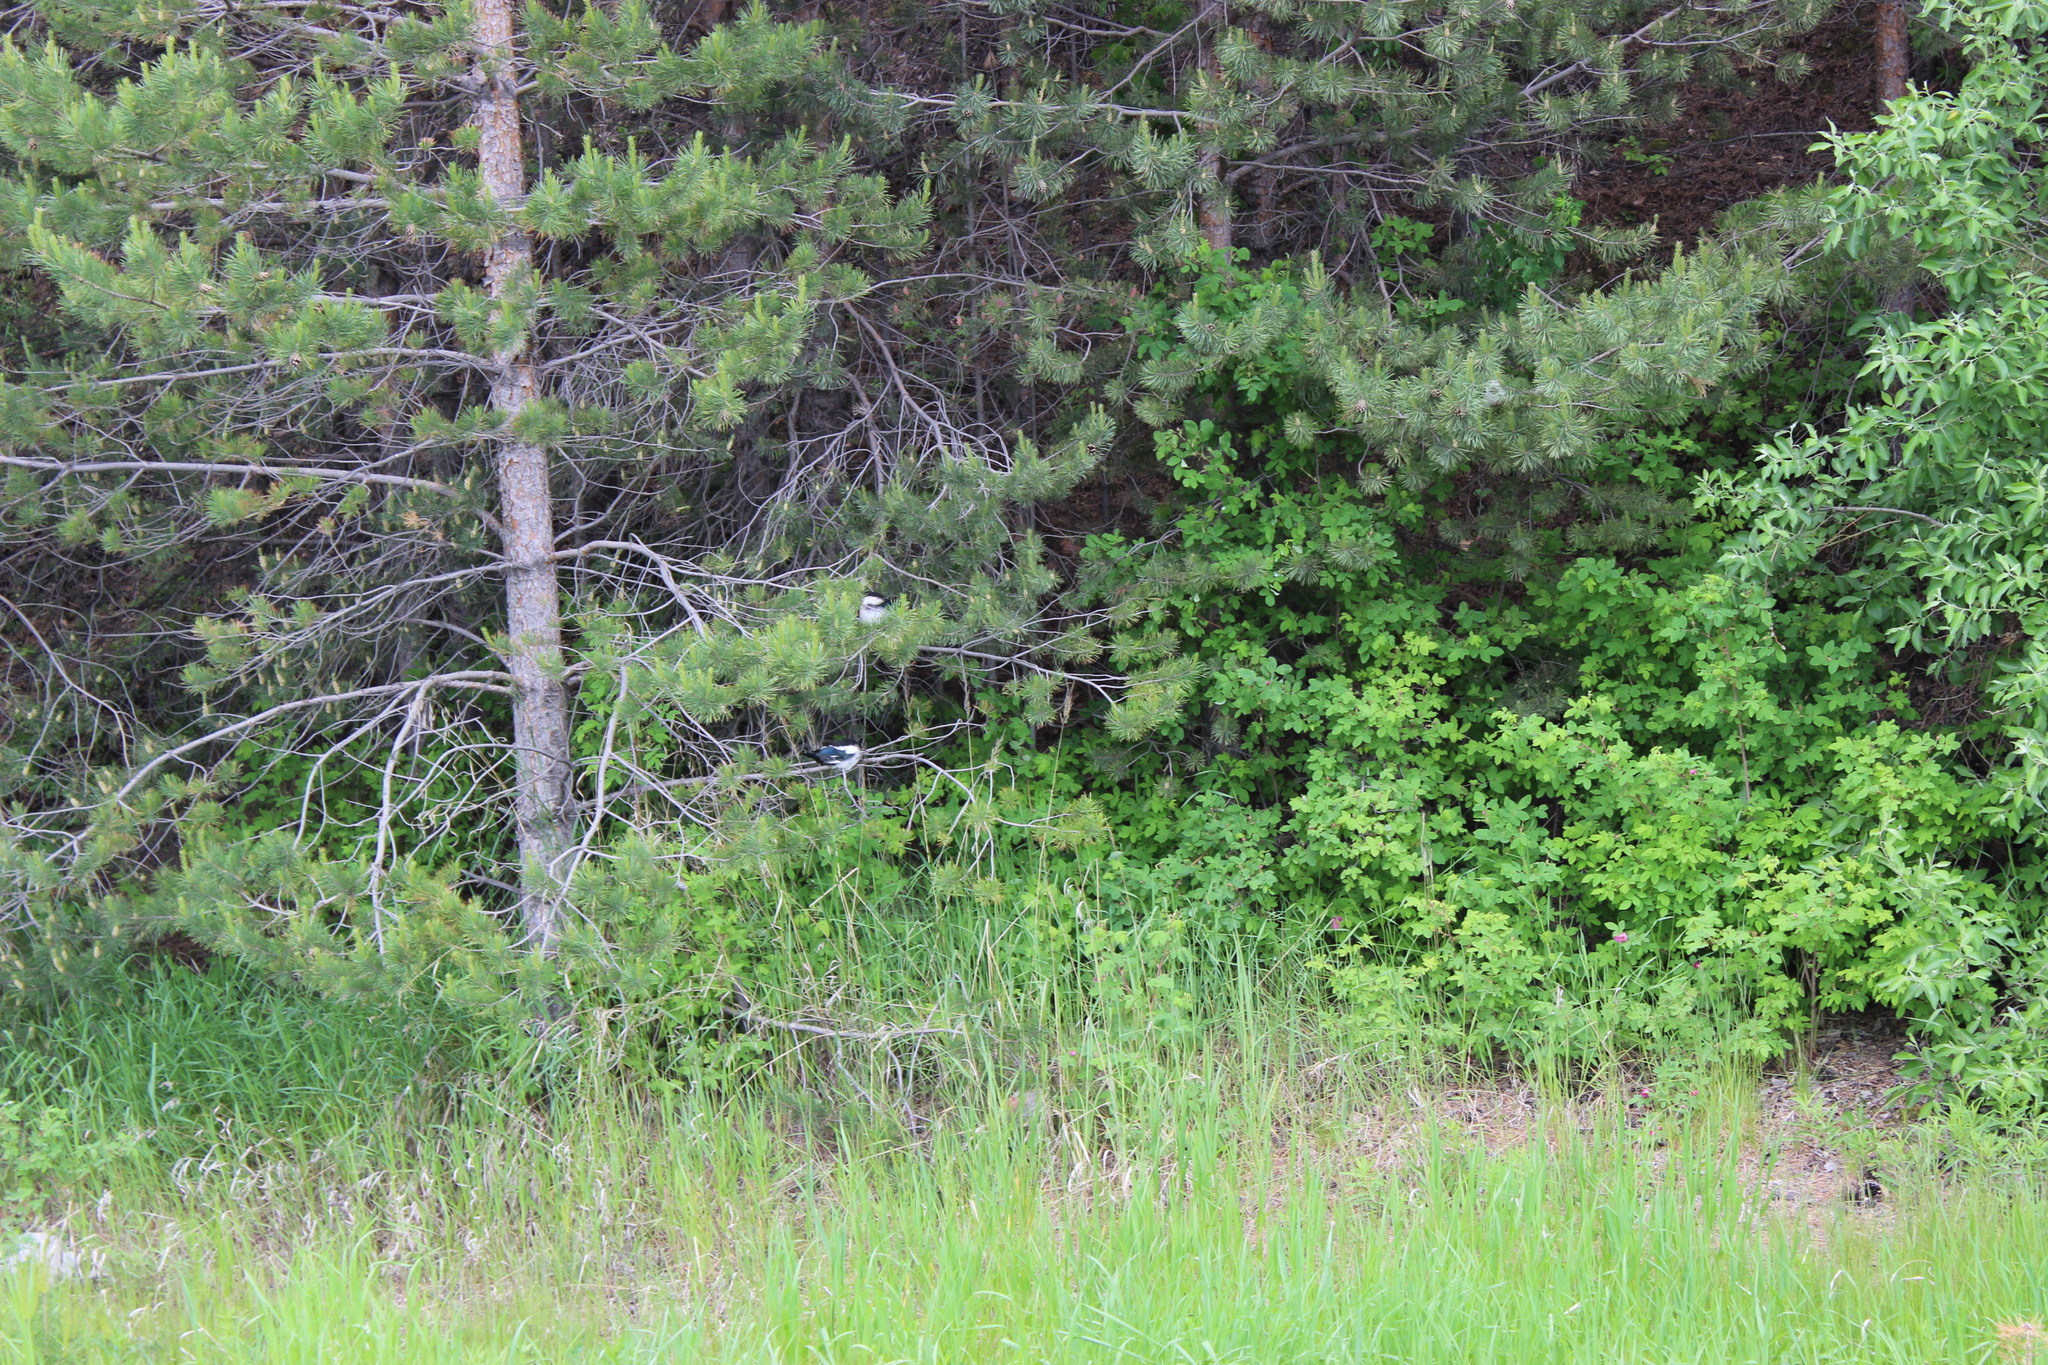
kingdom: Animalia
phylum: Chordata
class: Aves
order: Passeriformes
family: Corvidae
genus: Pica
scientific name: Pica pica
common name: Eurasian magpie
